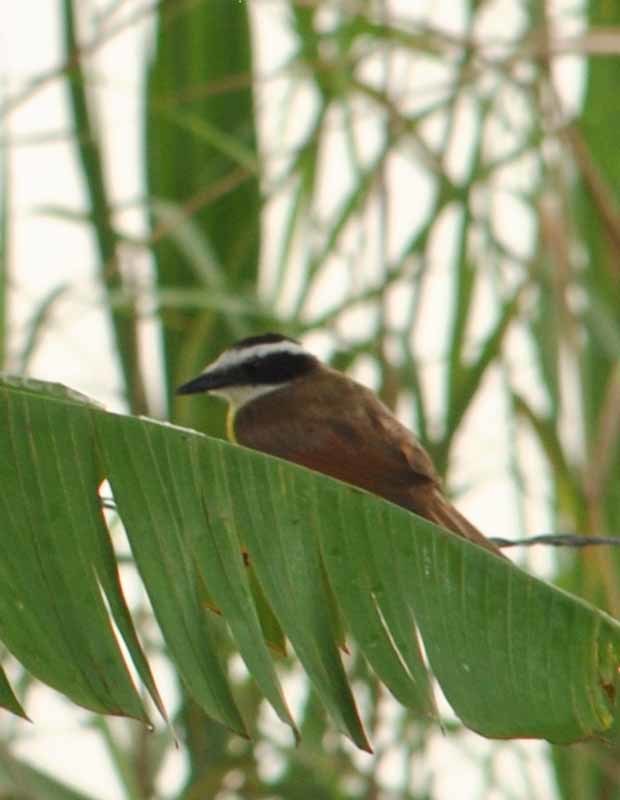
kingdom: Animalia
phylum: Chordata
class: Aves
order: Passeriformes
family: Tyrannidae
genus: Pitangus
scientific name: Pitangus sulphuratus
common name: Great kiskadee
